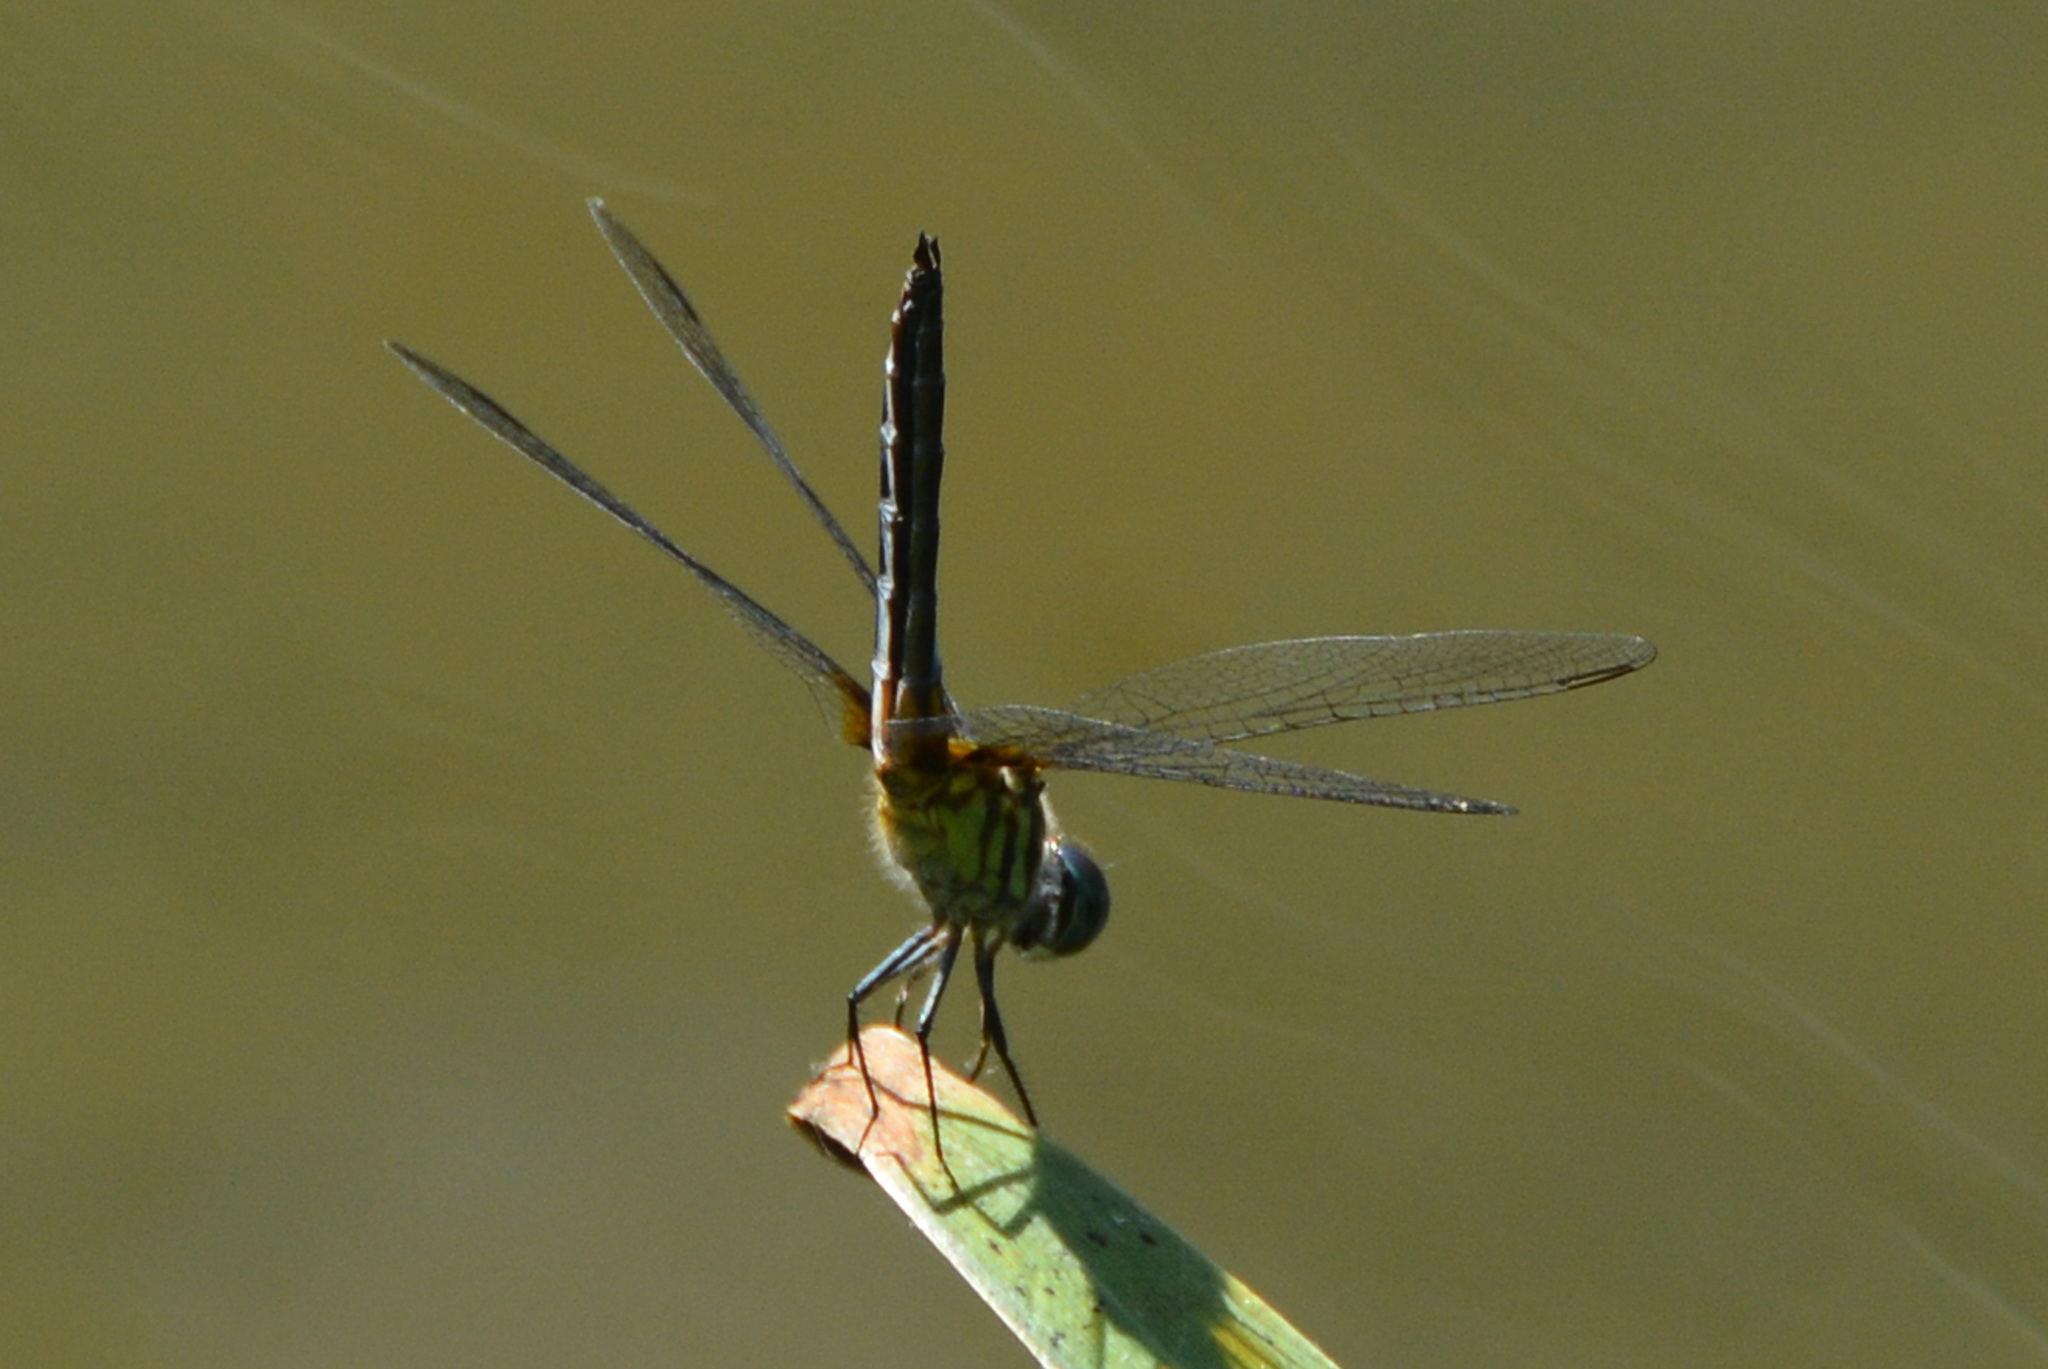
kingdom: Animalia
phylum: Arthropoda
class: Insecta
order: Odonata
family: Libellulidae
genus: Pachydiplax
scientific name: Pachydiplax longipennis
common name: Blue dasher
